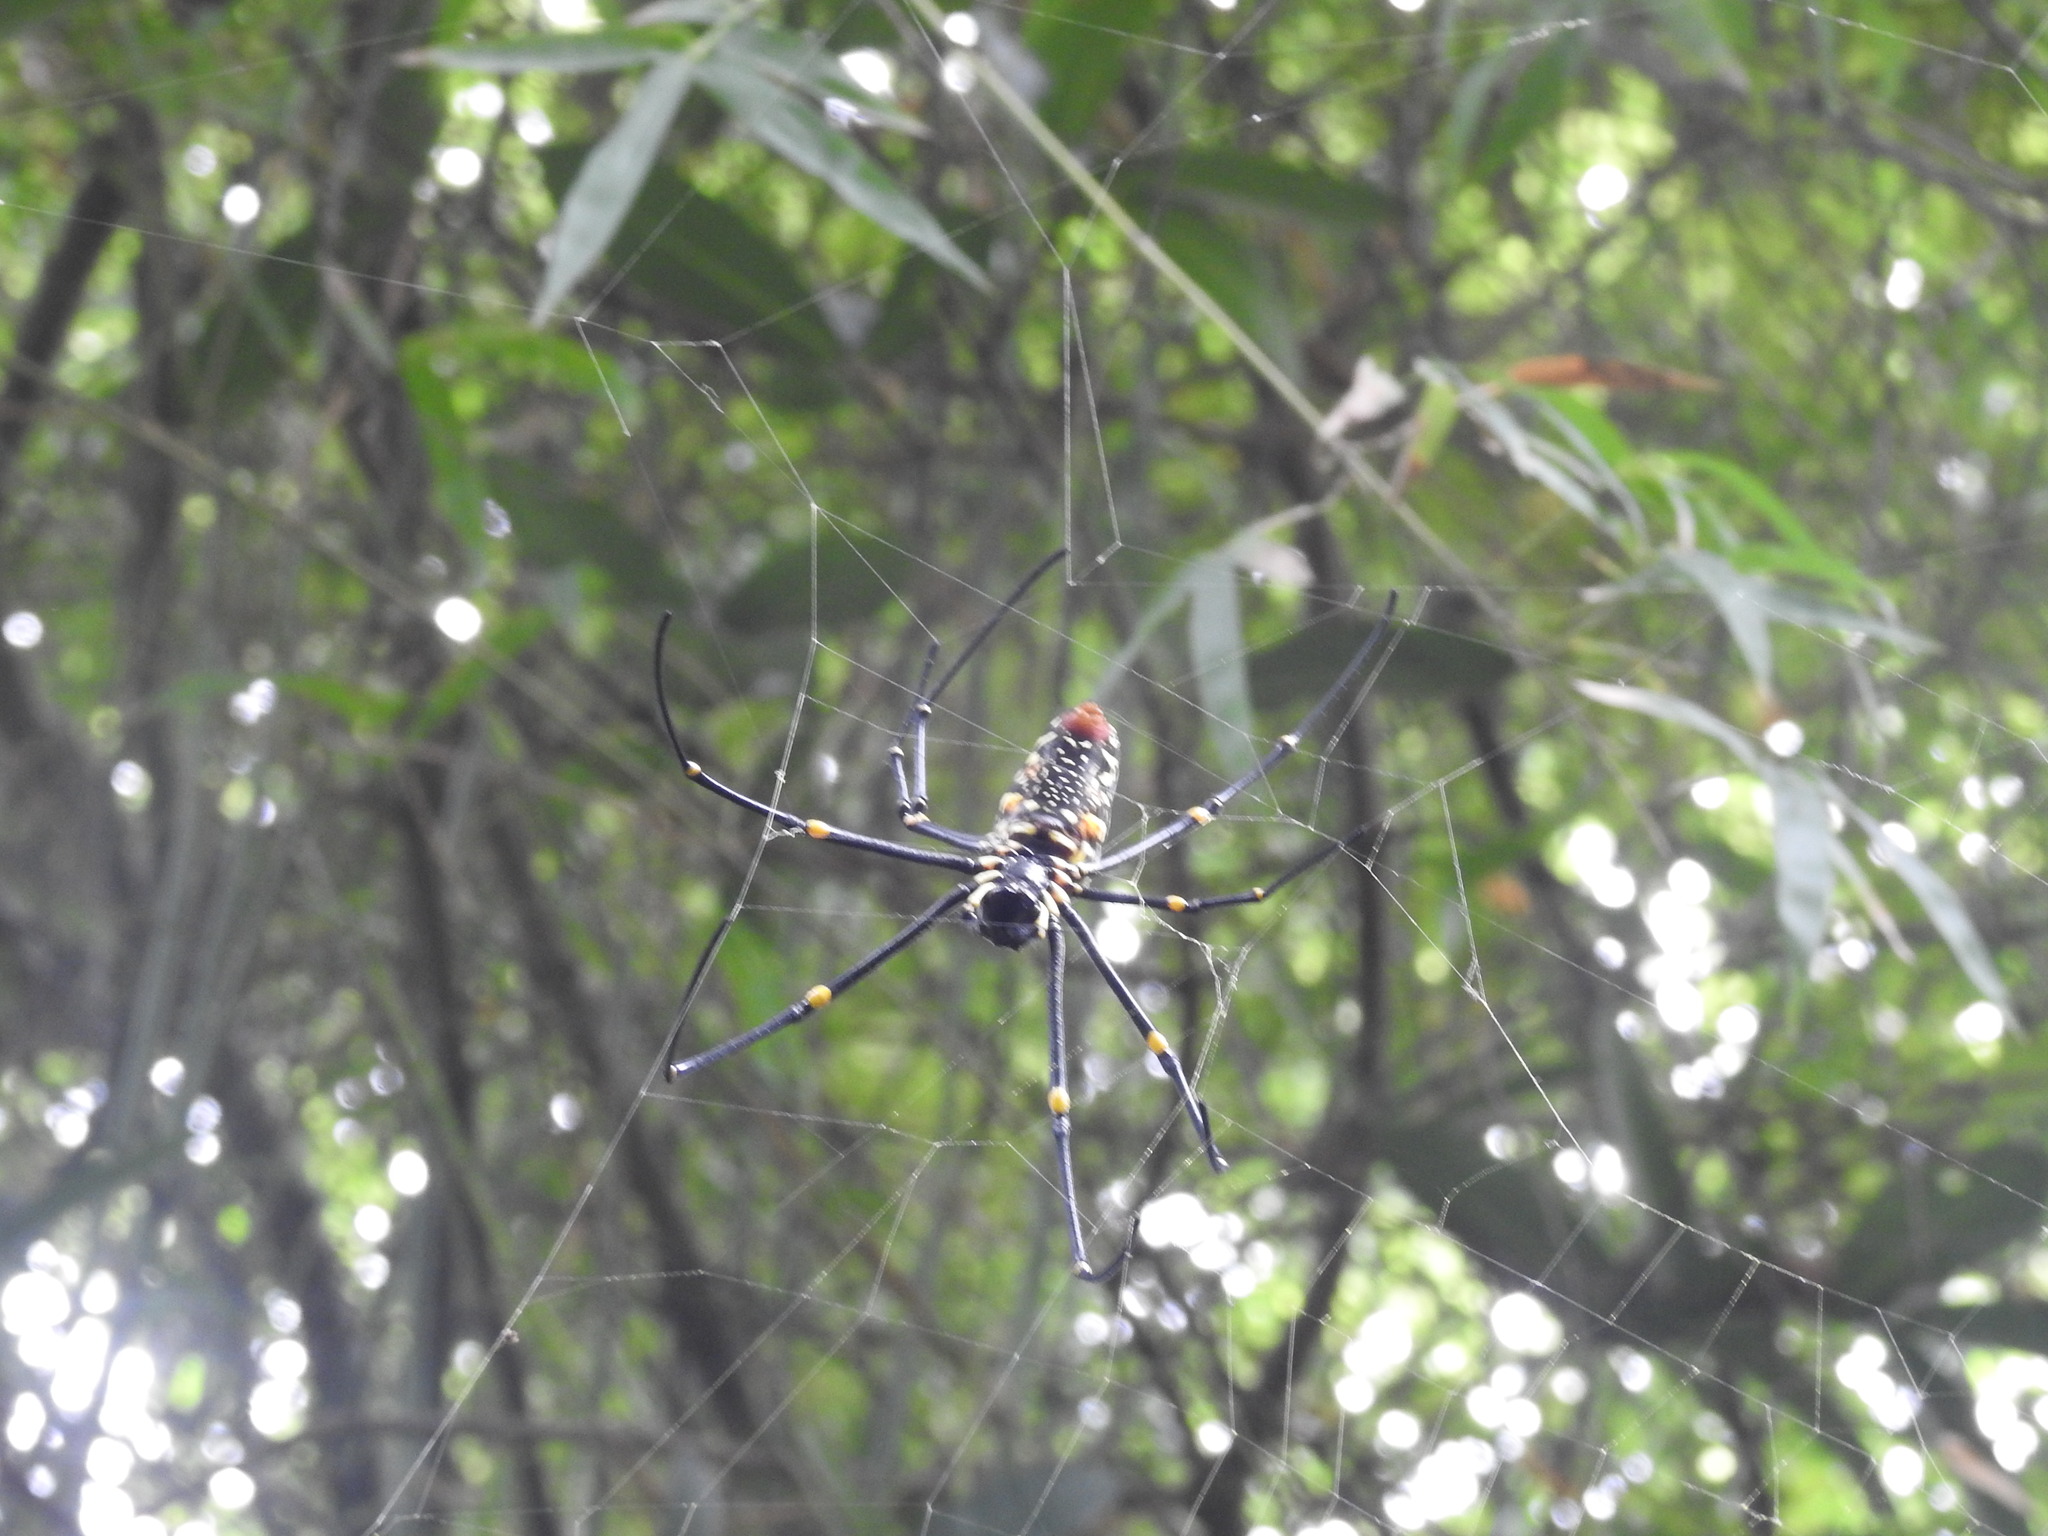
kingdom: Animalia
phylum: Arthropoda
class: Arachnida
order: Araneae
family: Araneidae
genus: Nephila
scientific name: Nephila pilipes
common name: Giant golden orb weaver
